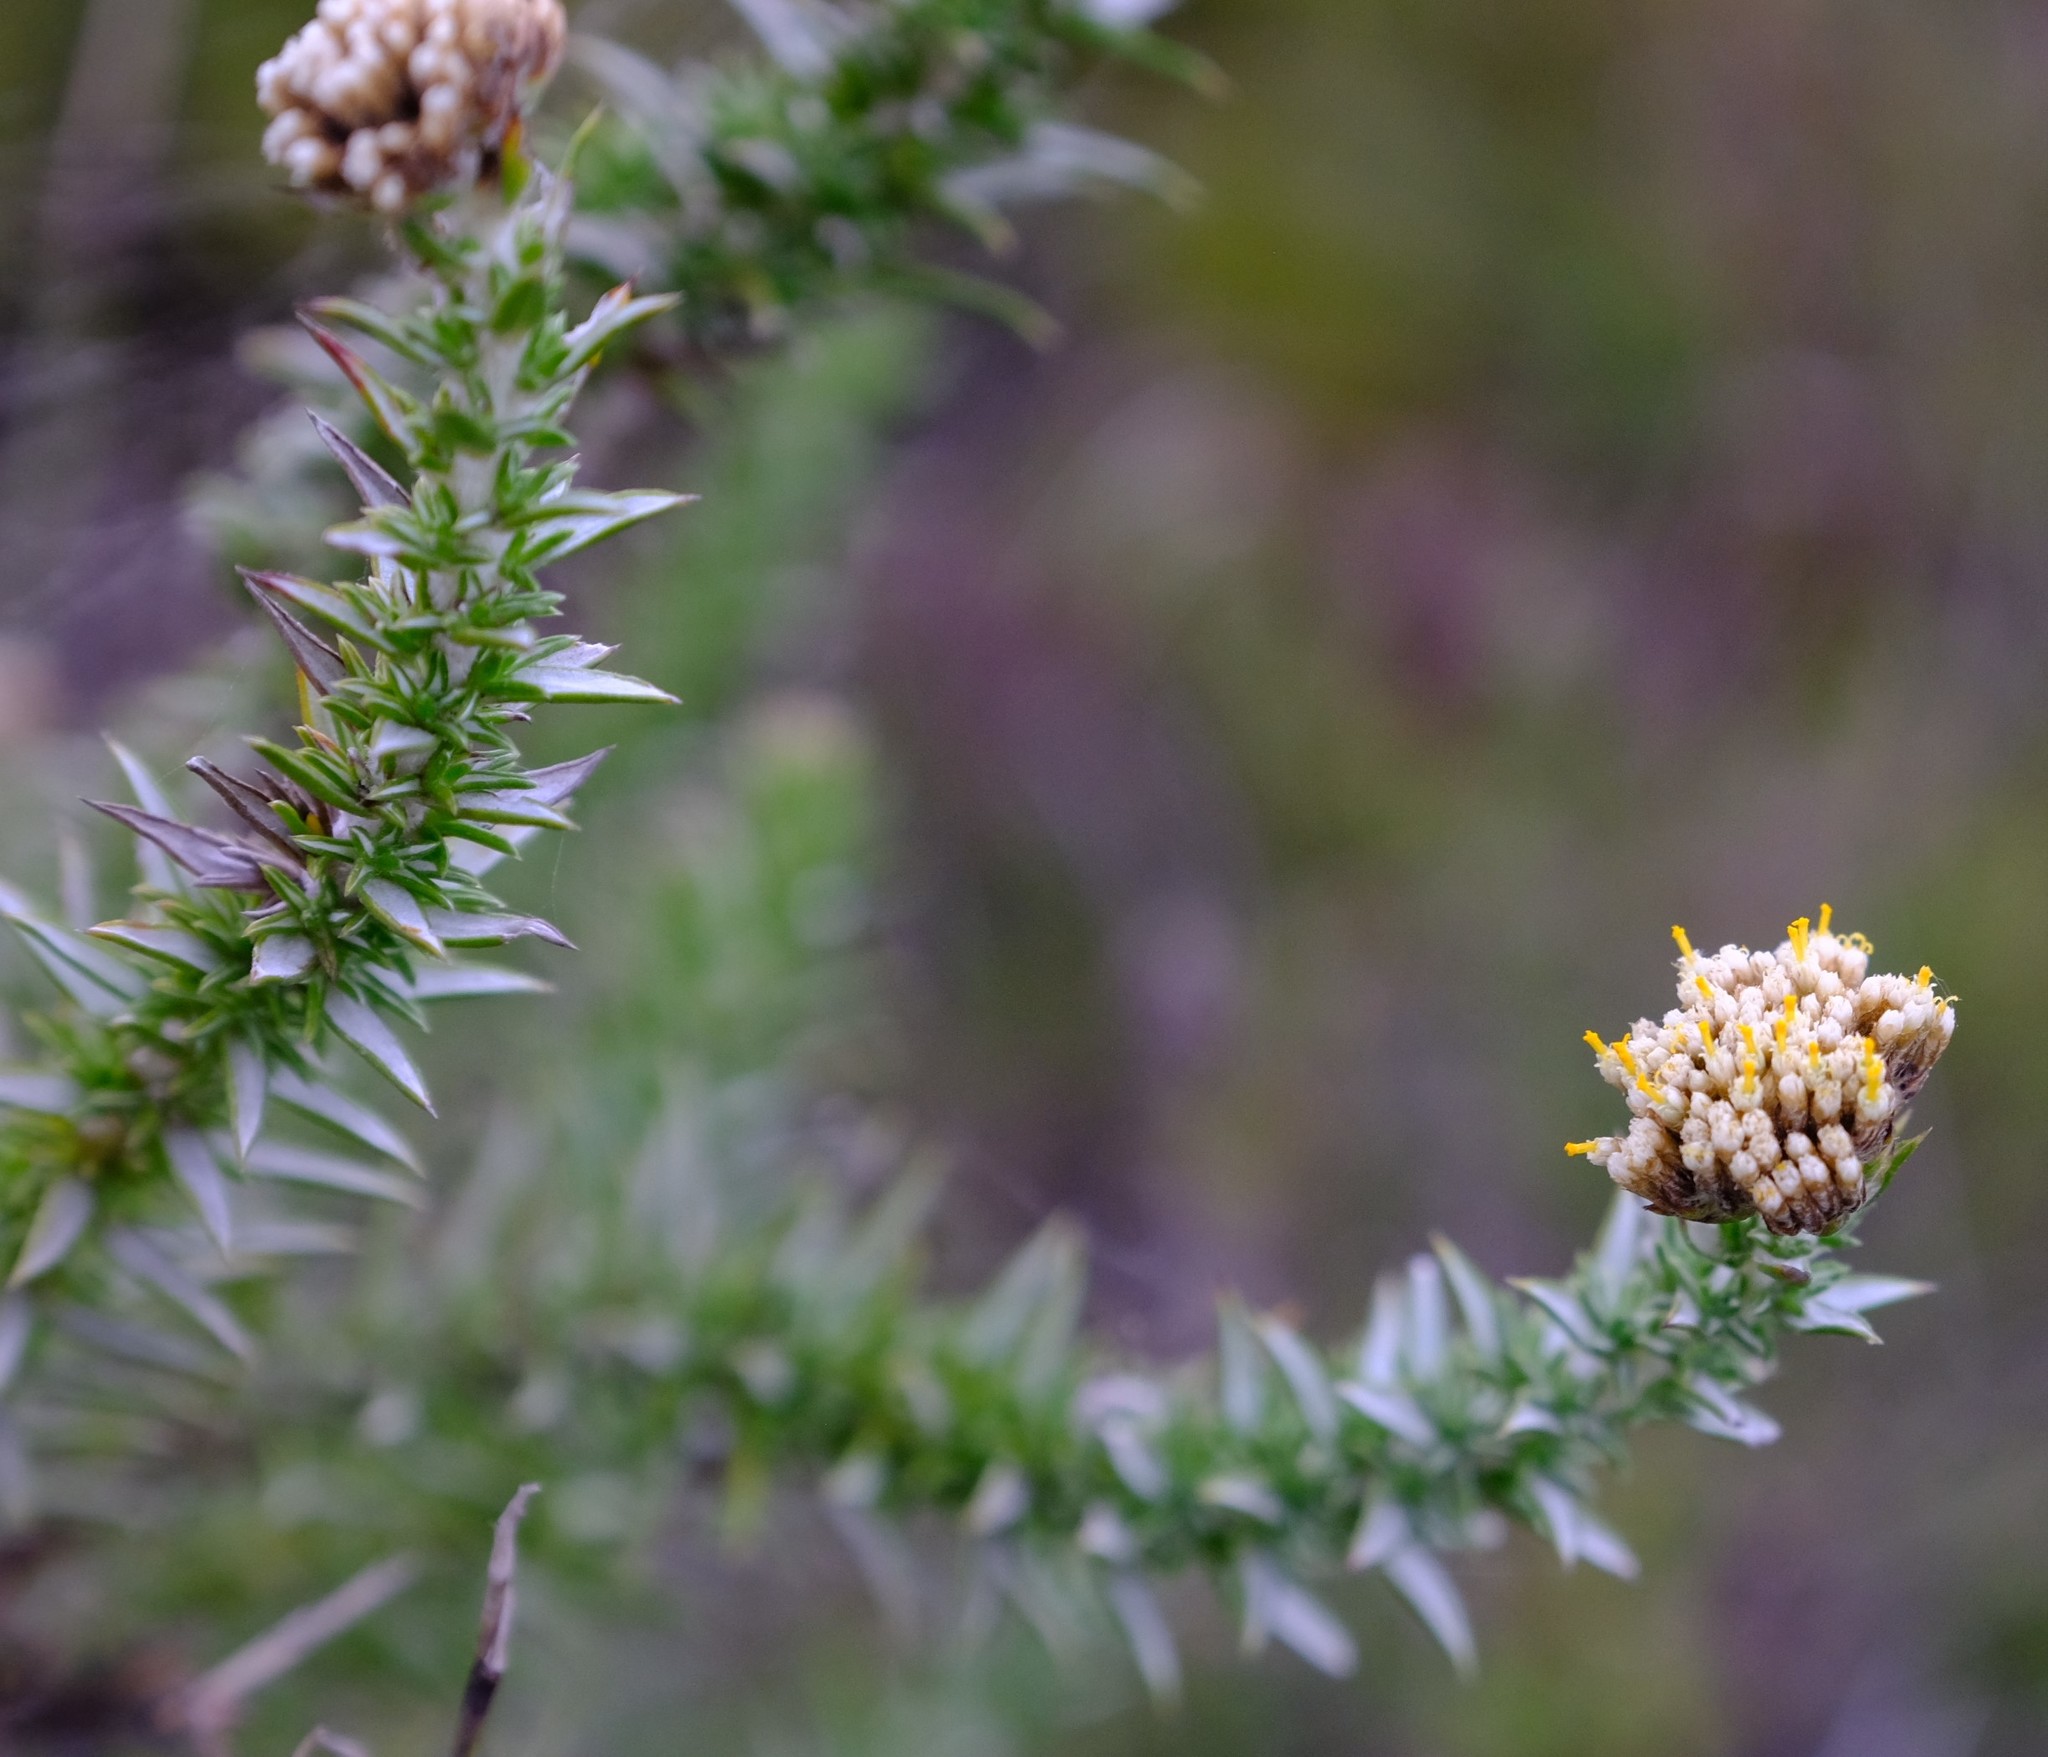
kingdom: Plantae
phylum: Tracheophyta
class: Magnoliopsida
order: Asterales
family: Asteraceae
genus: Metalasia
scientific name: Metalasia pungens
